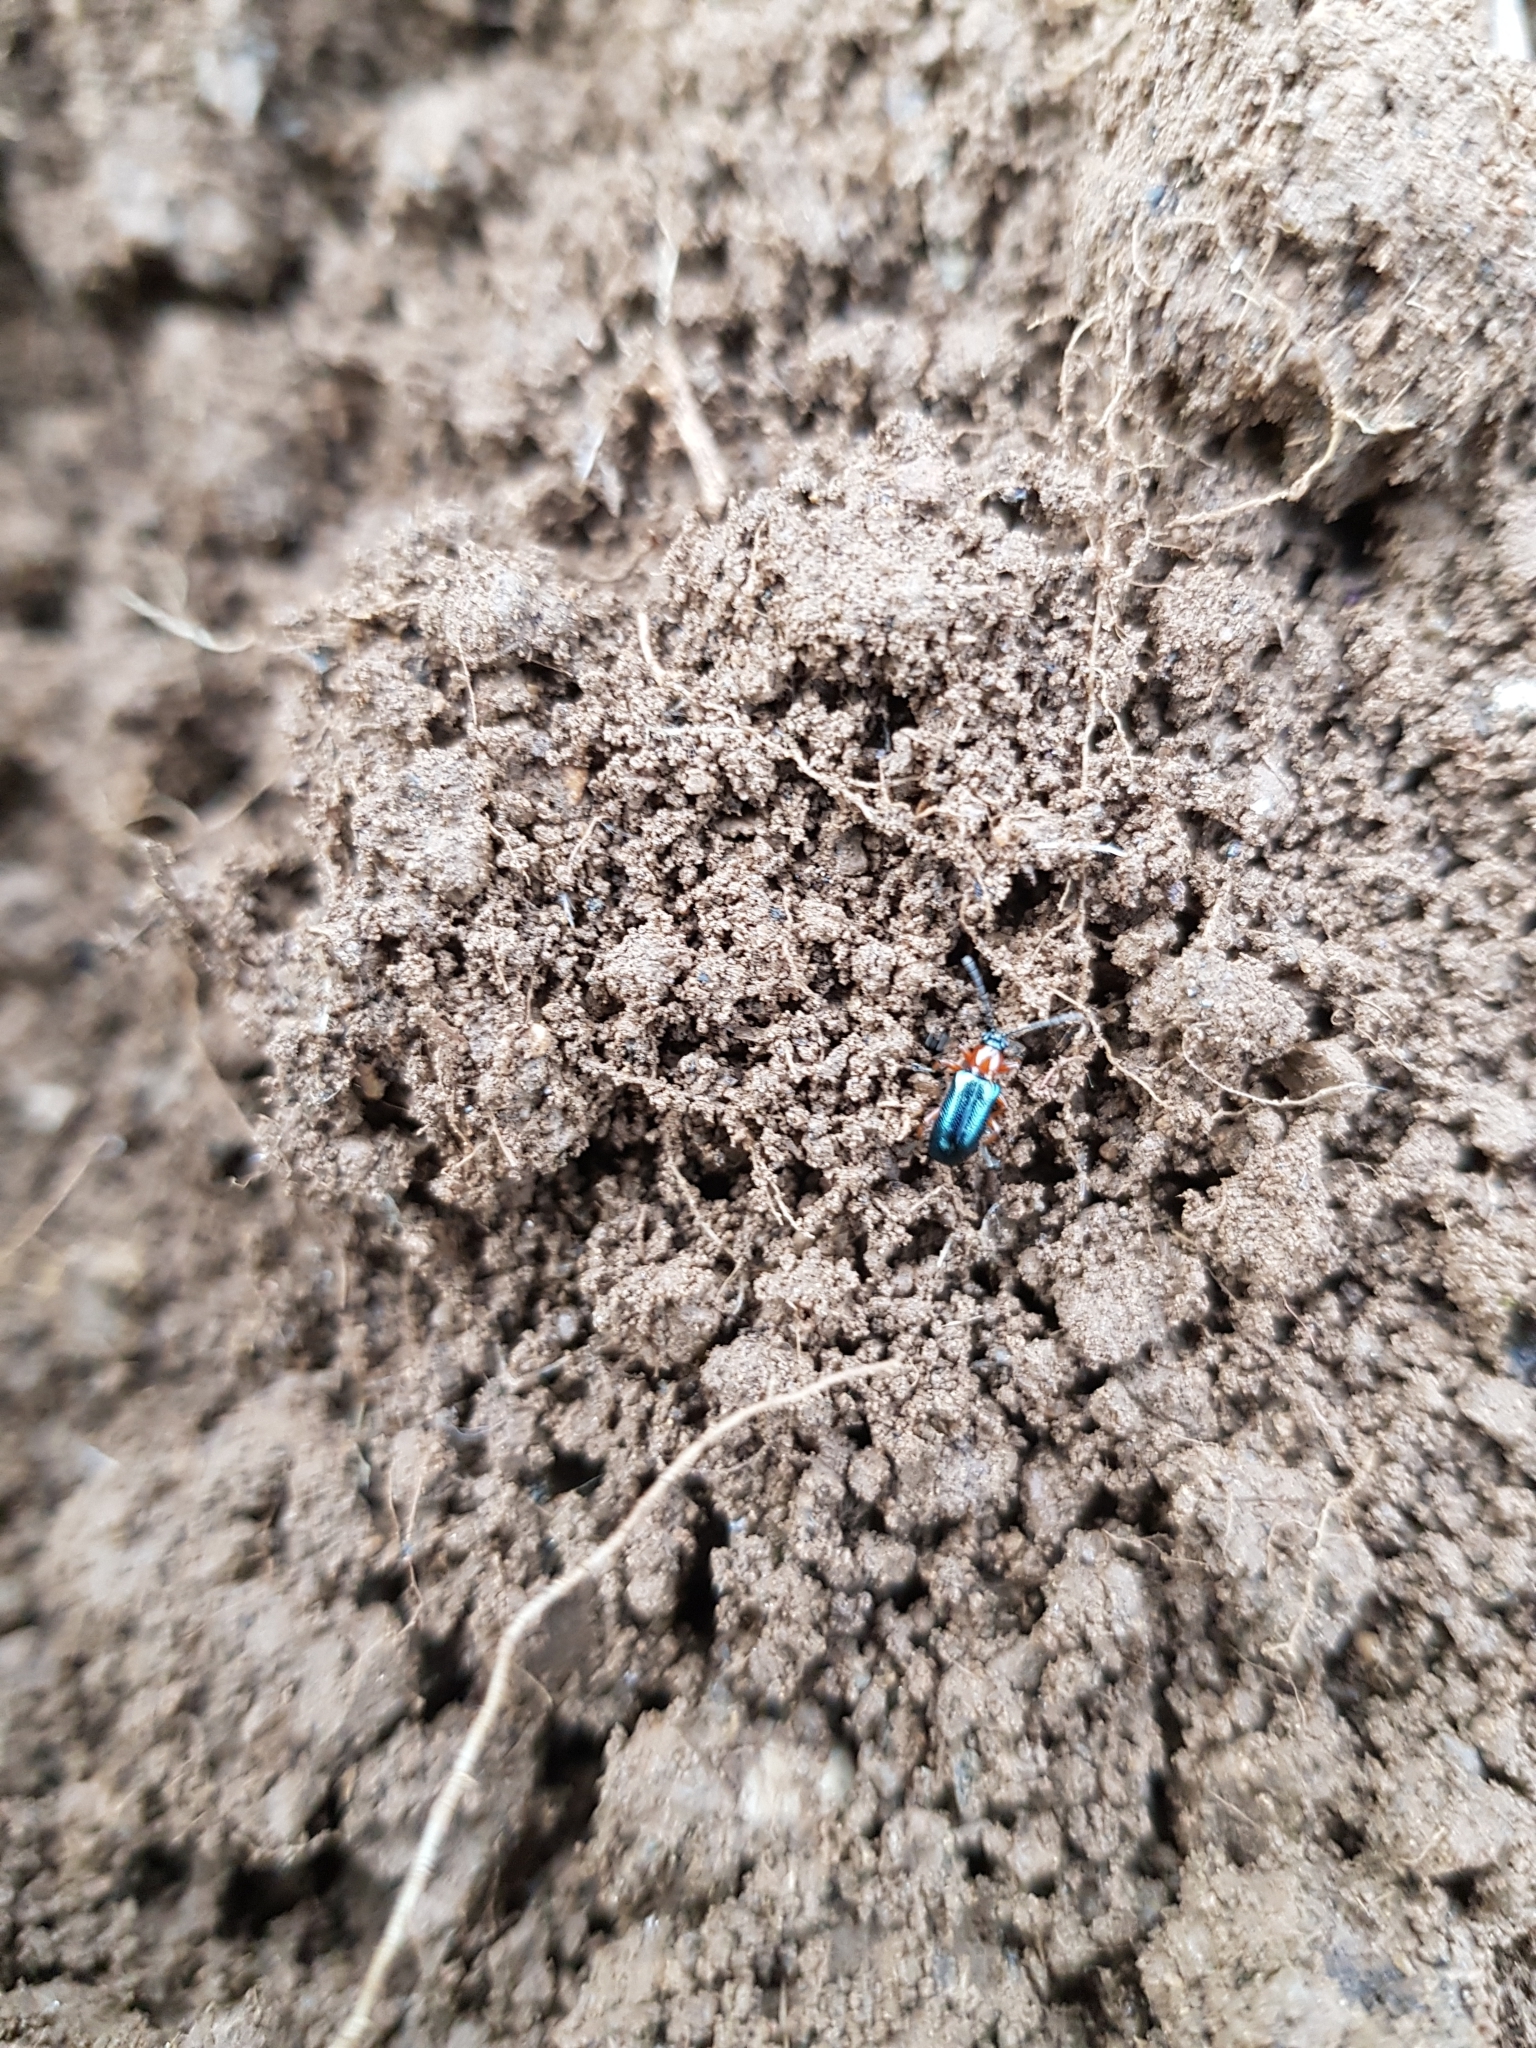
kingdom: Animalia
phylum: Arthropoda
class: Insecta
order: Coleoptera
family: Chrysomelidae
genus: Oulema
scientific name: Oulema
